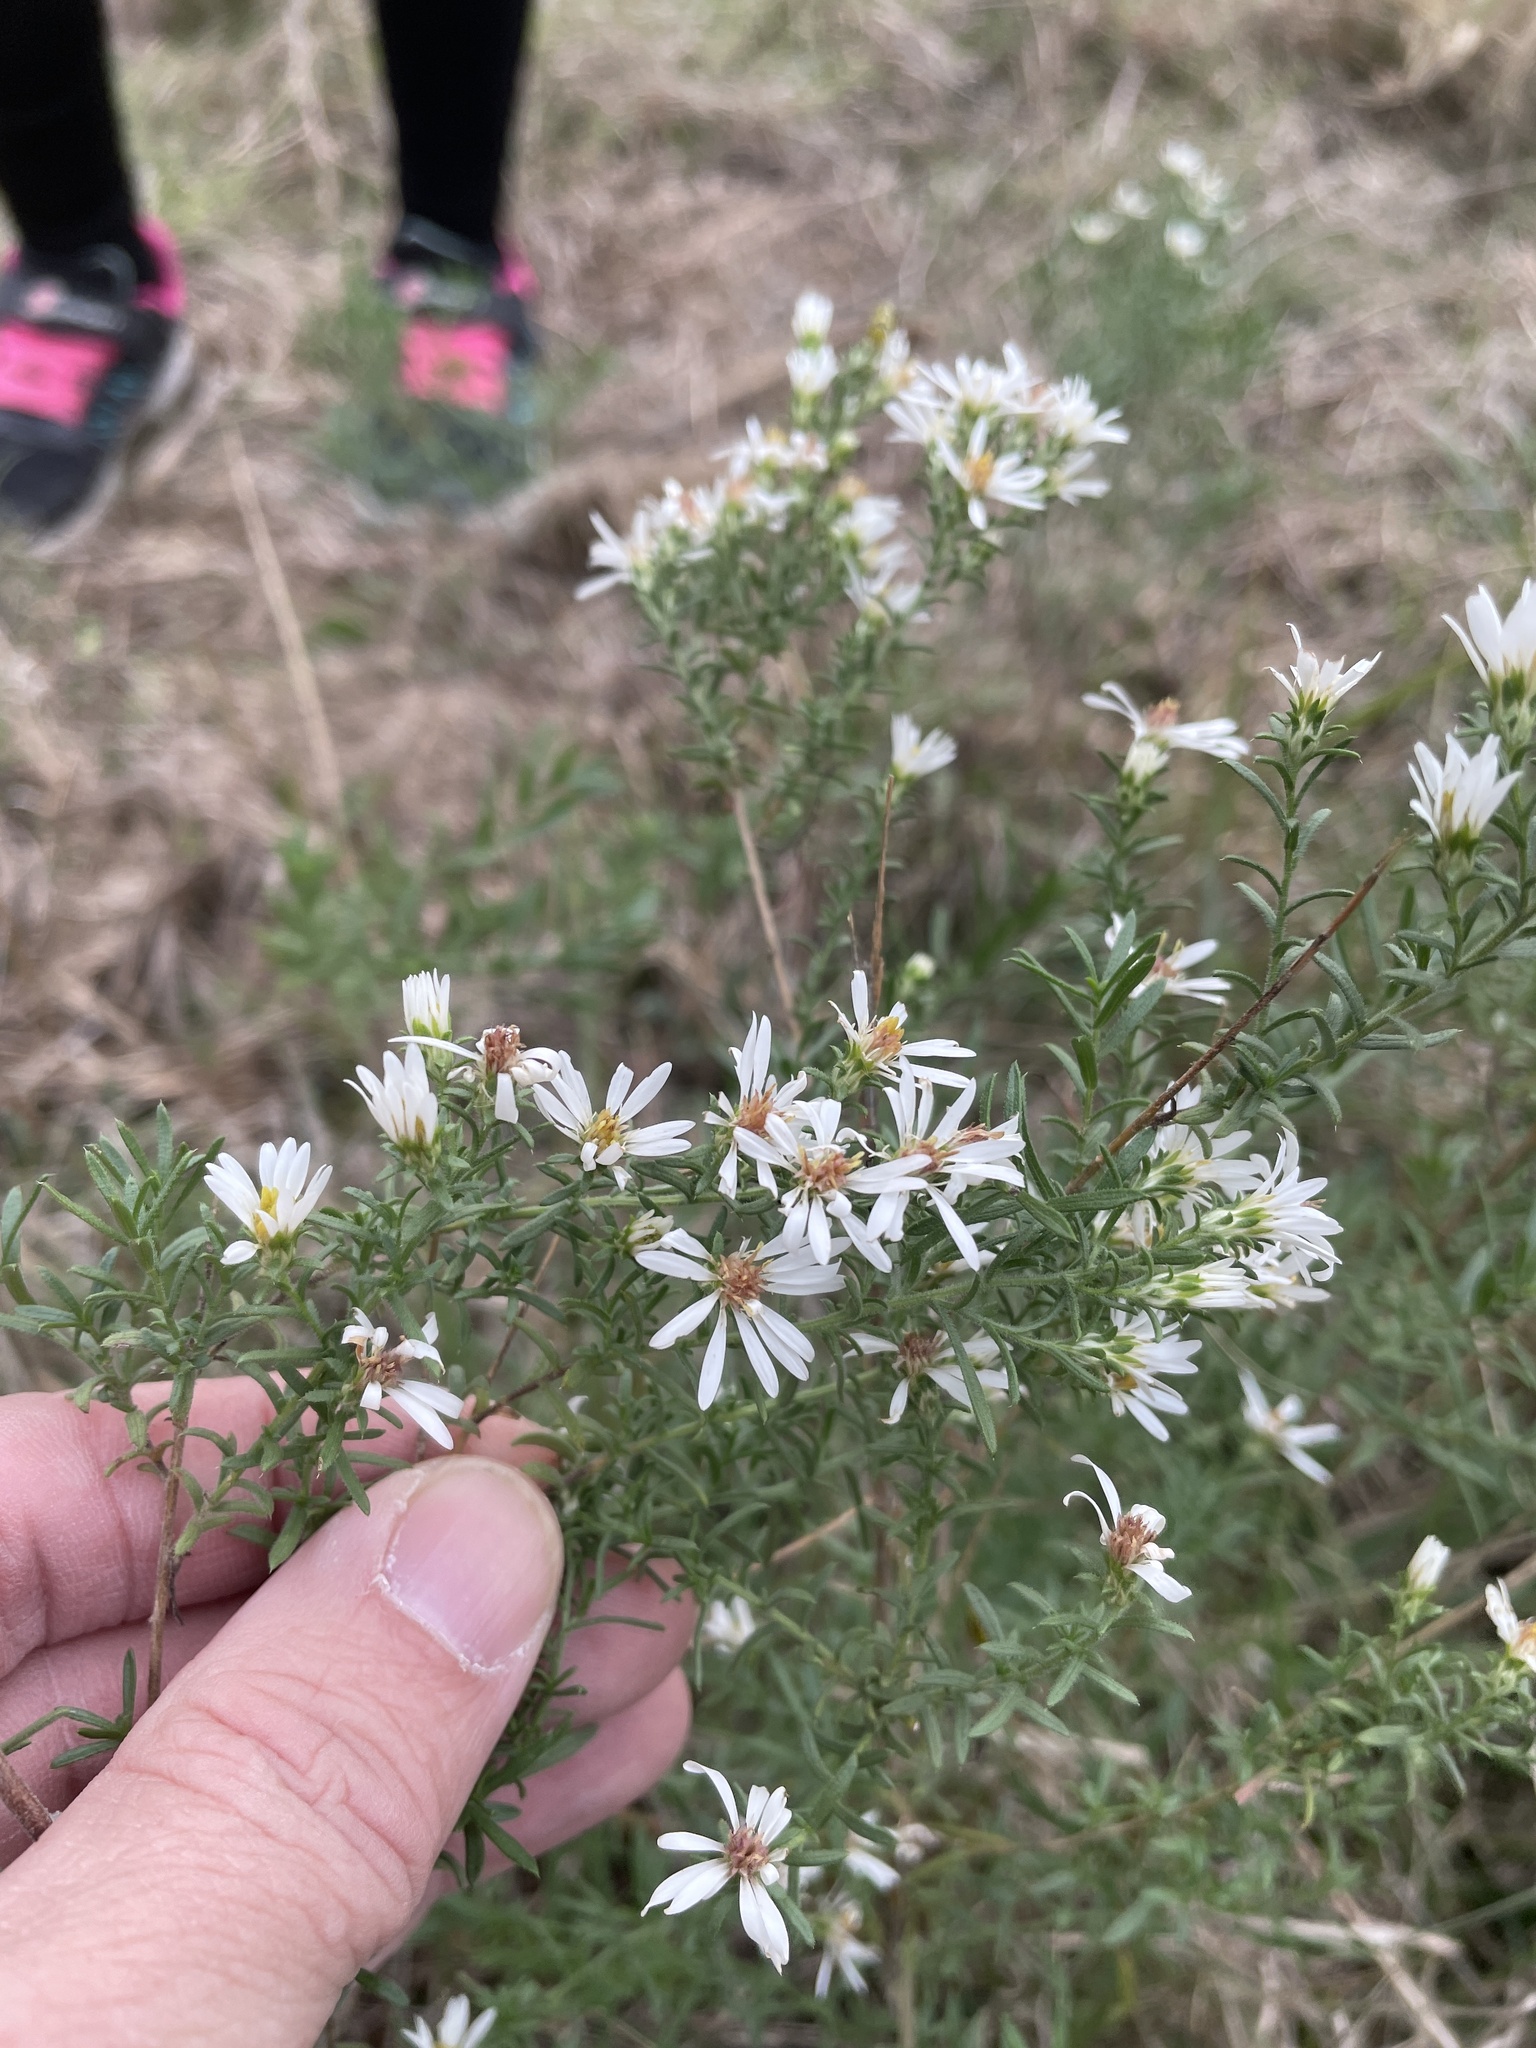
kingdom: Plantae
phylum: Tracheophyta
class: Magnoliopsida
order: Asterales
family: Asteraceae
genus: Symphyotrichum
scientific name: Symphyotrichum ericoides
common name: Heath aster
